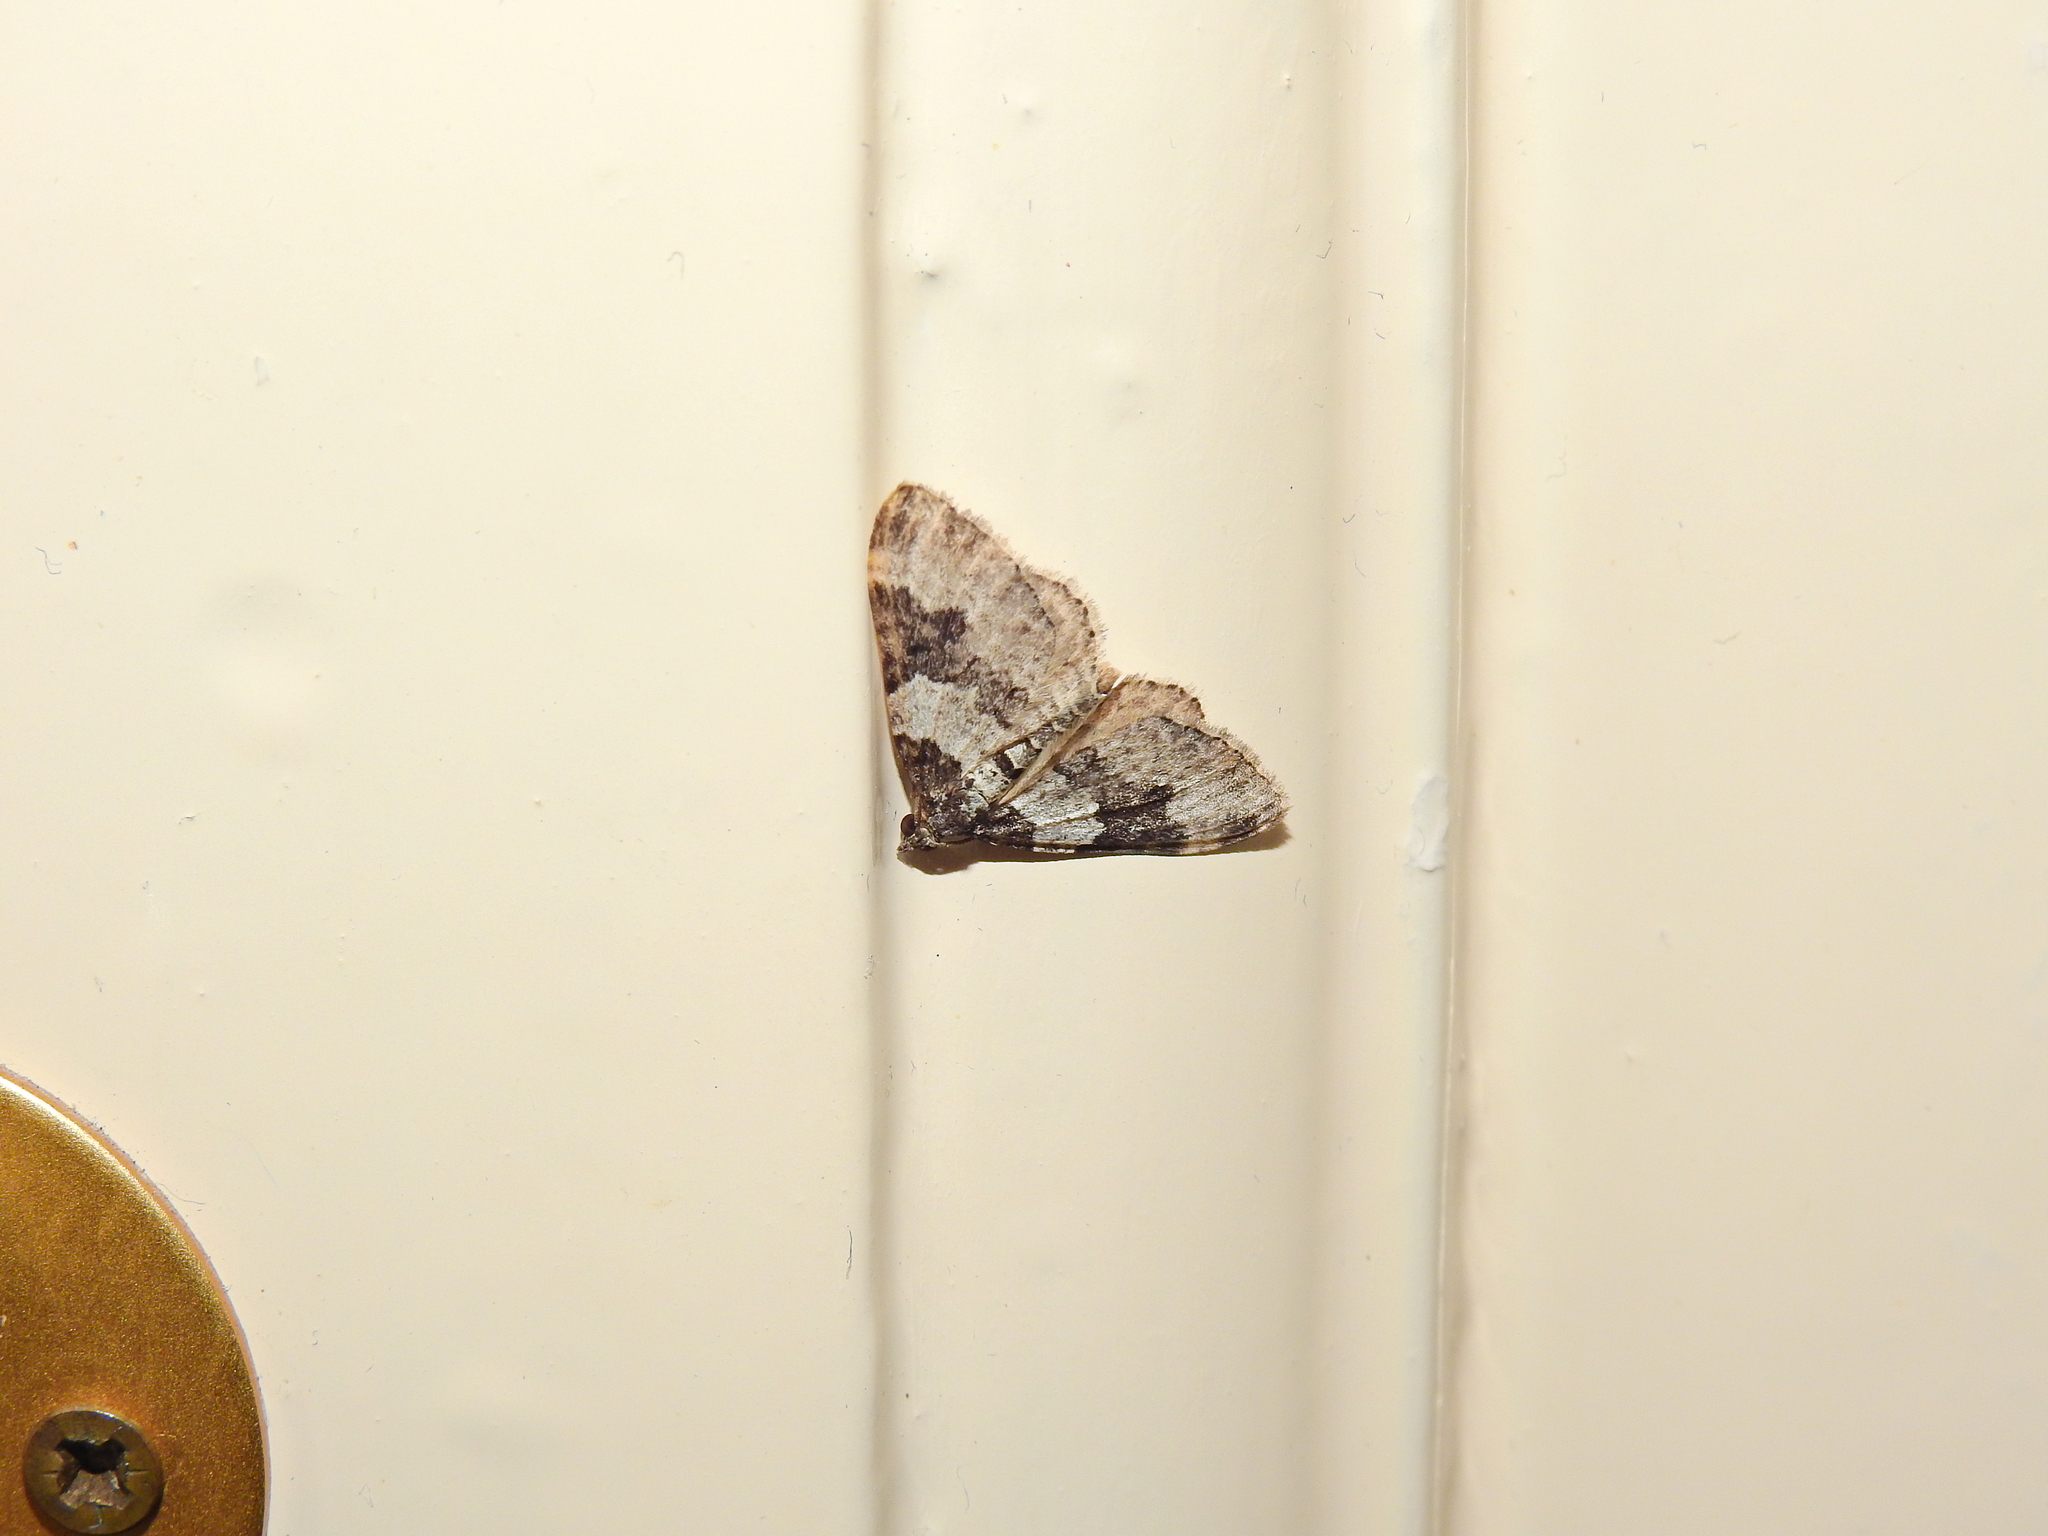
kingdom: Animalia
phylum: Arthropoda
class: Insecta
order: Lepidoptera
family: Geometridae
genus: Xanthorhoe
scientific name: Xanthorhoe fluctuata
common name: Garden carpet
